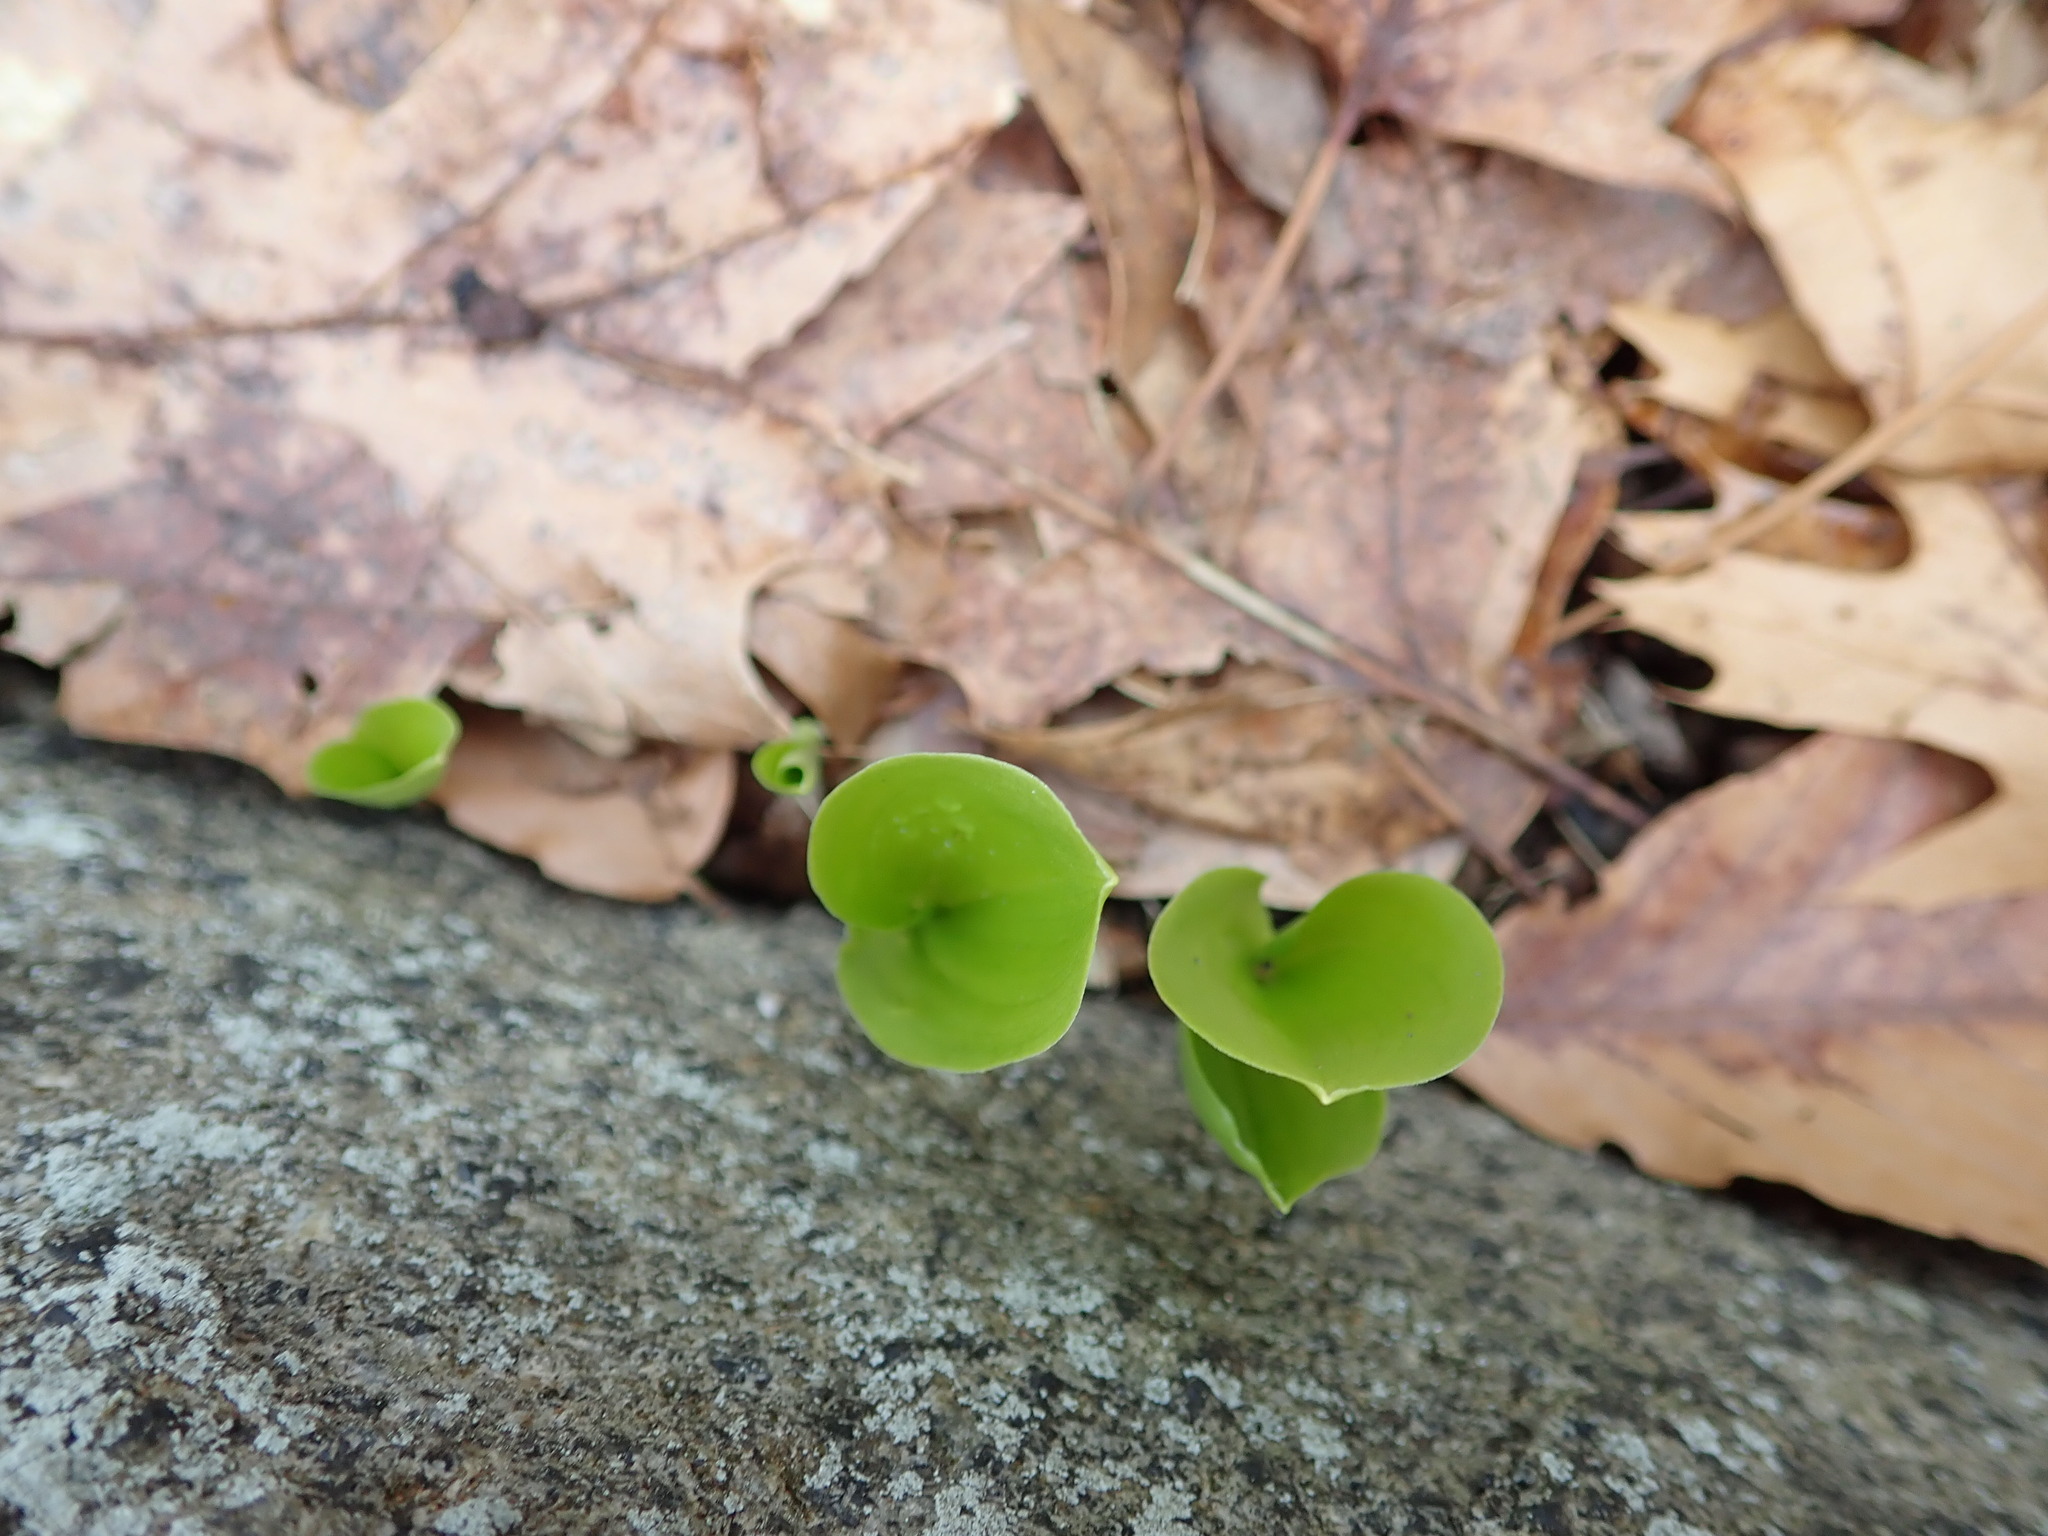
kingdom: Plantae
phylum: Tracheophyta
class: Liliopsida
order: Asparagales
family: Asparagaceae
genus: Maianthemum
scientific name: Maianthemum canadense
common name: False lily-of-the-valley
